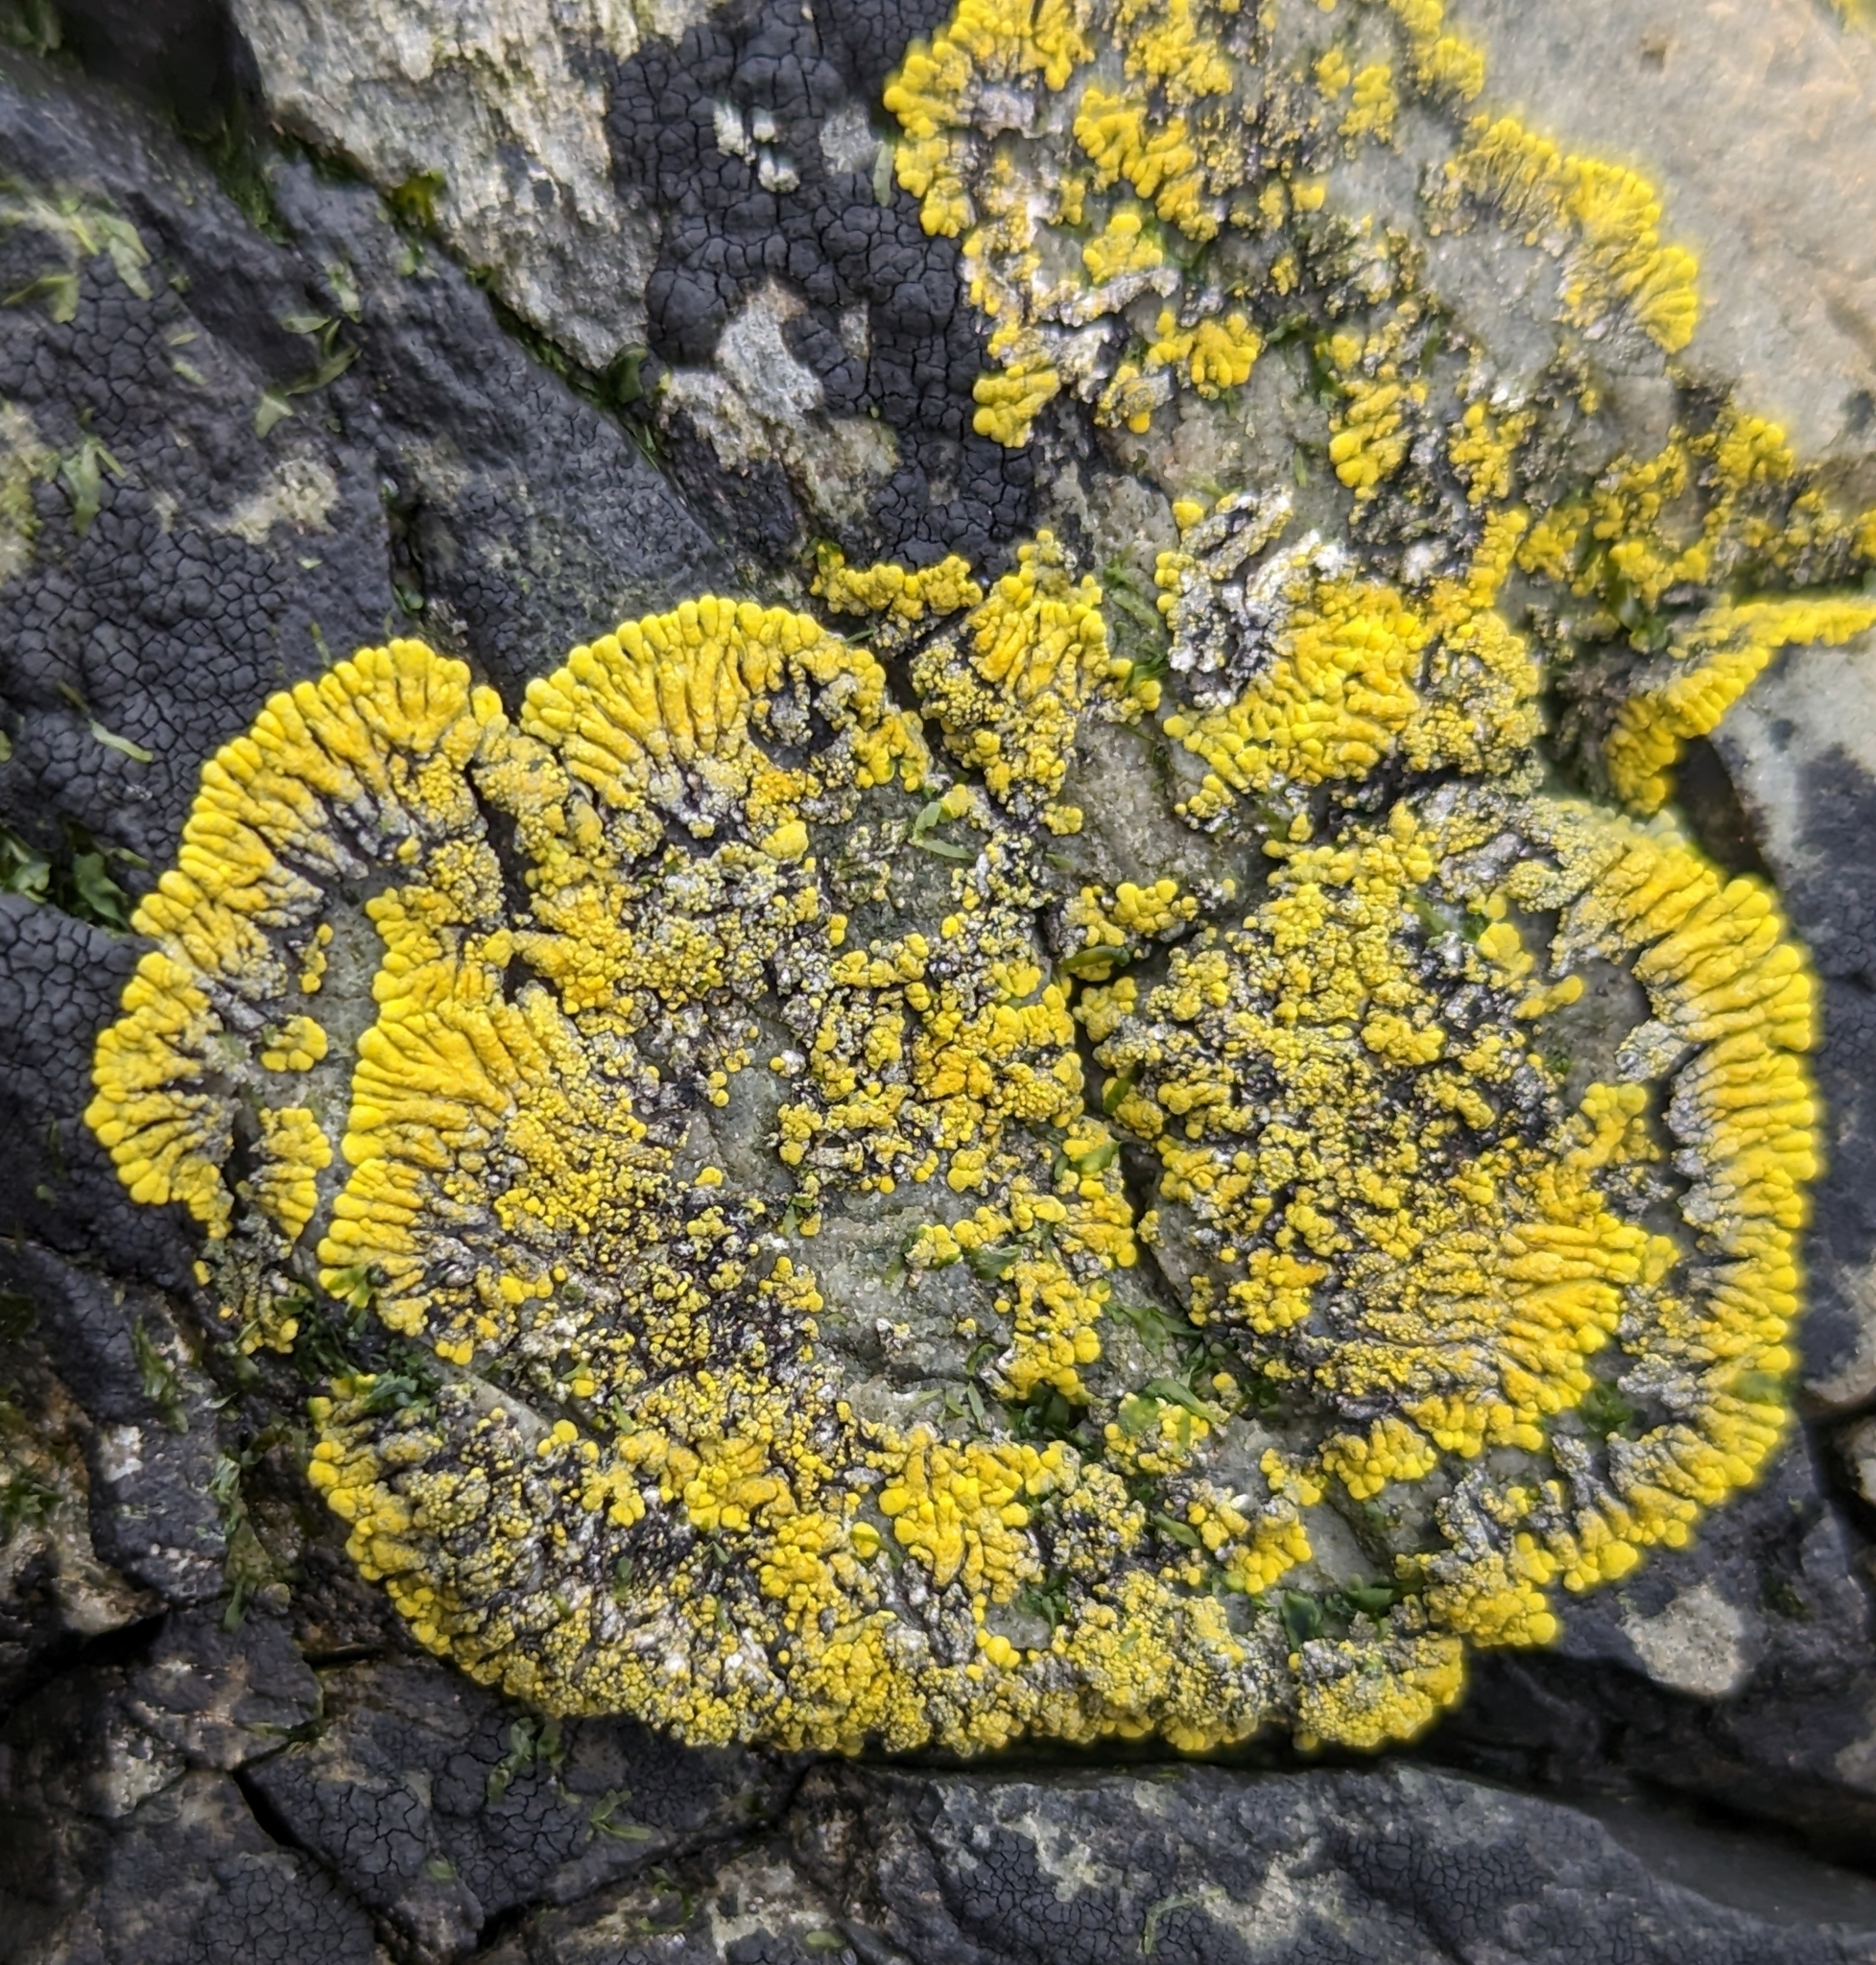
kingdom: Fungi
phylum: Ascomycota
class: Lecanoromycetes
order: Teloschistales
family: Teloschistaceae
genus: Verrucoplaca
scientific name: Verrucoplaca verruculifera
